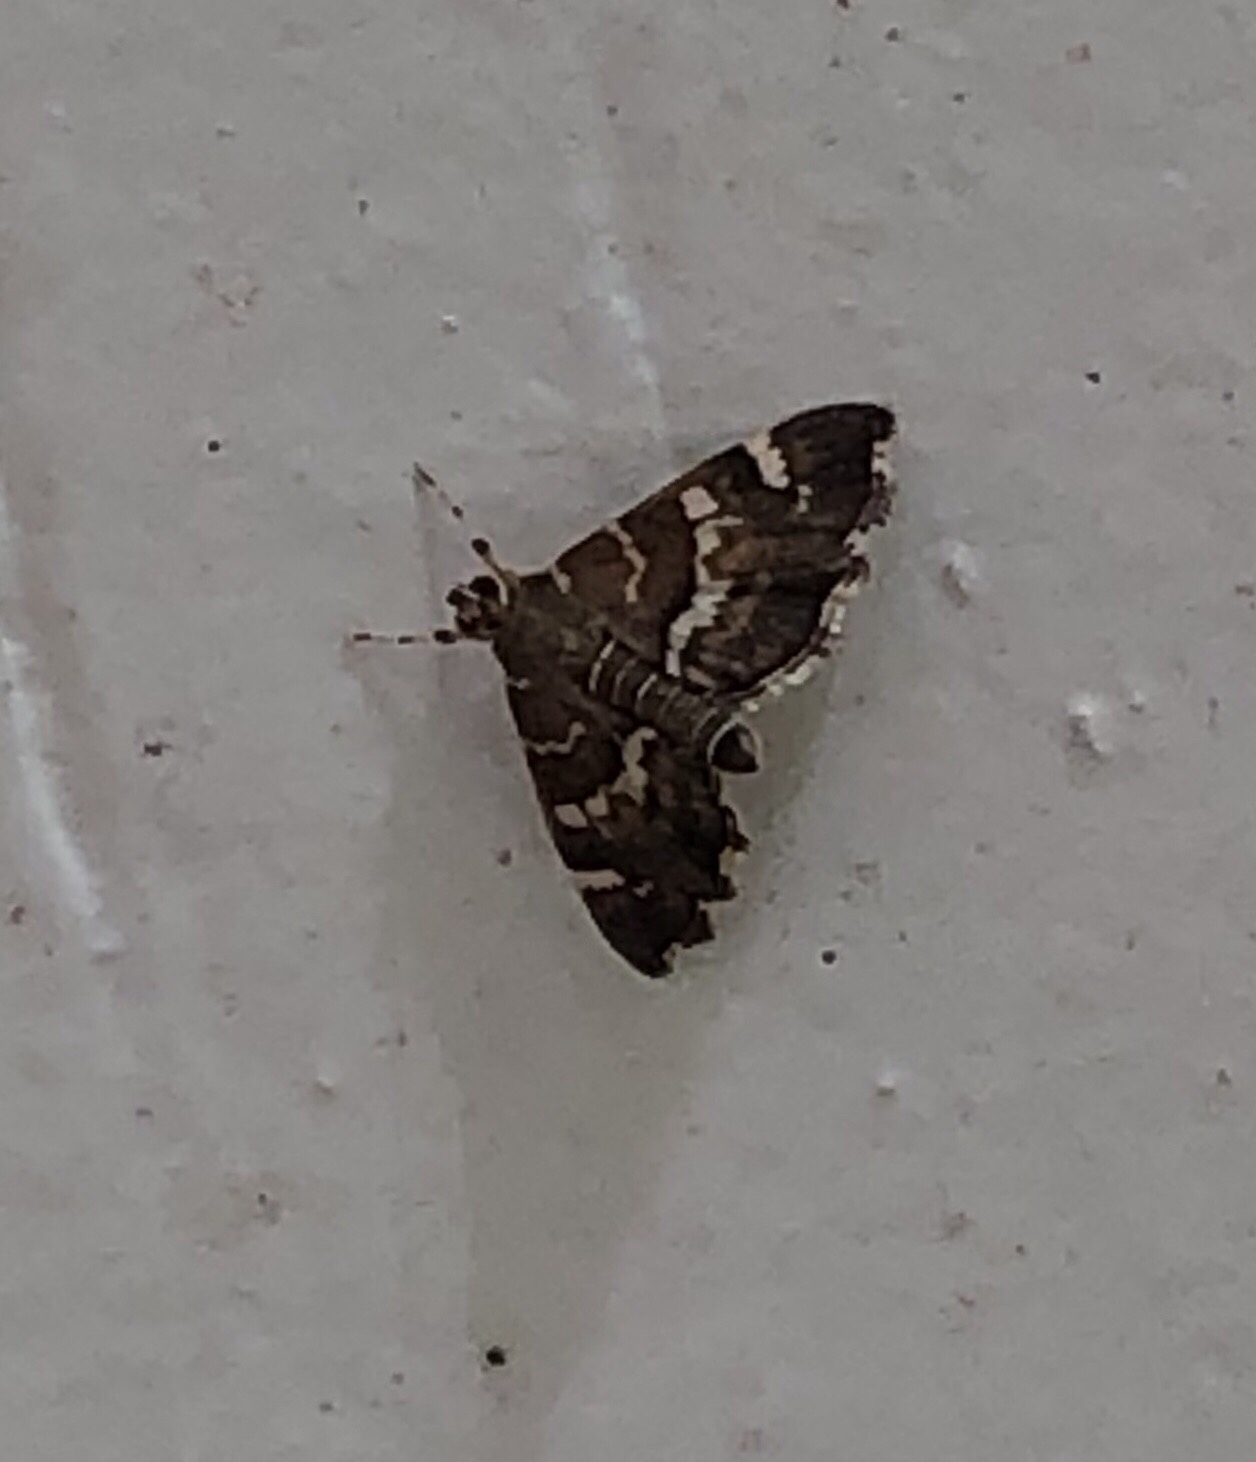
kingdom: Animalia
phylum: Arthropoda
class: Insecta
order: Lepidoptera
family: Crambidae
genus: Hymenia
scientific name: Hymenia perspectalis
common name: Spotted beet webworm
